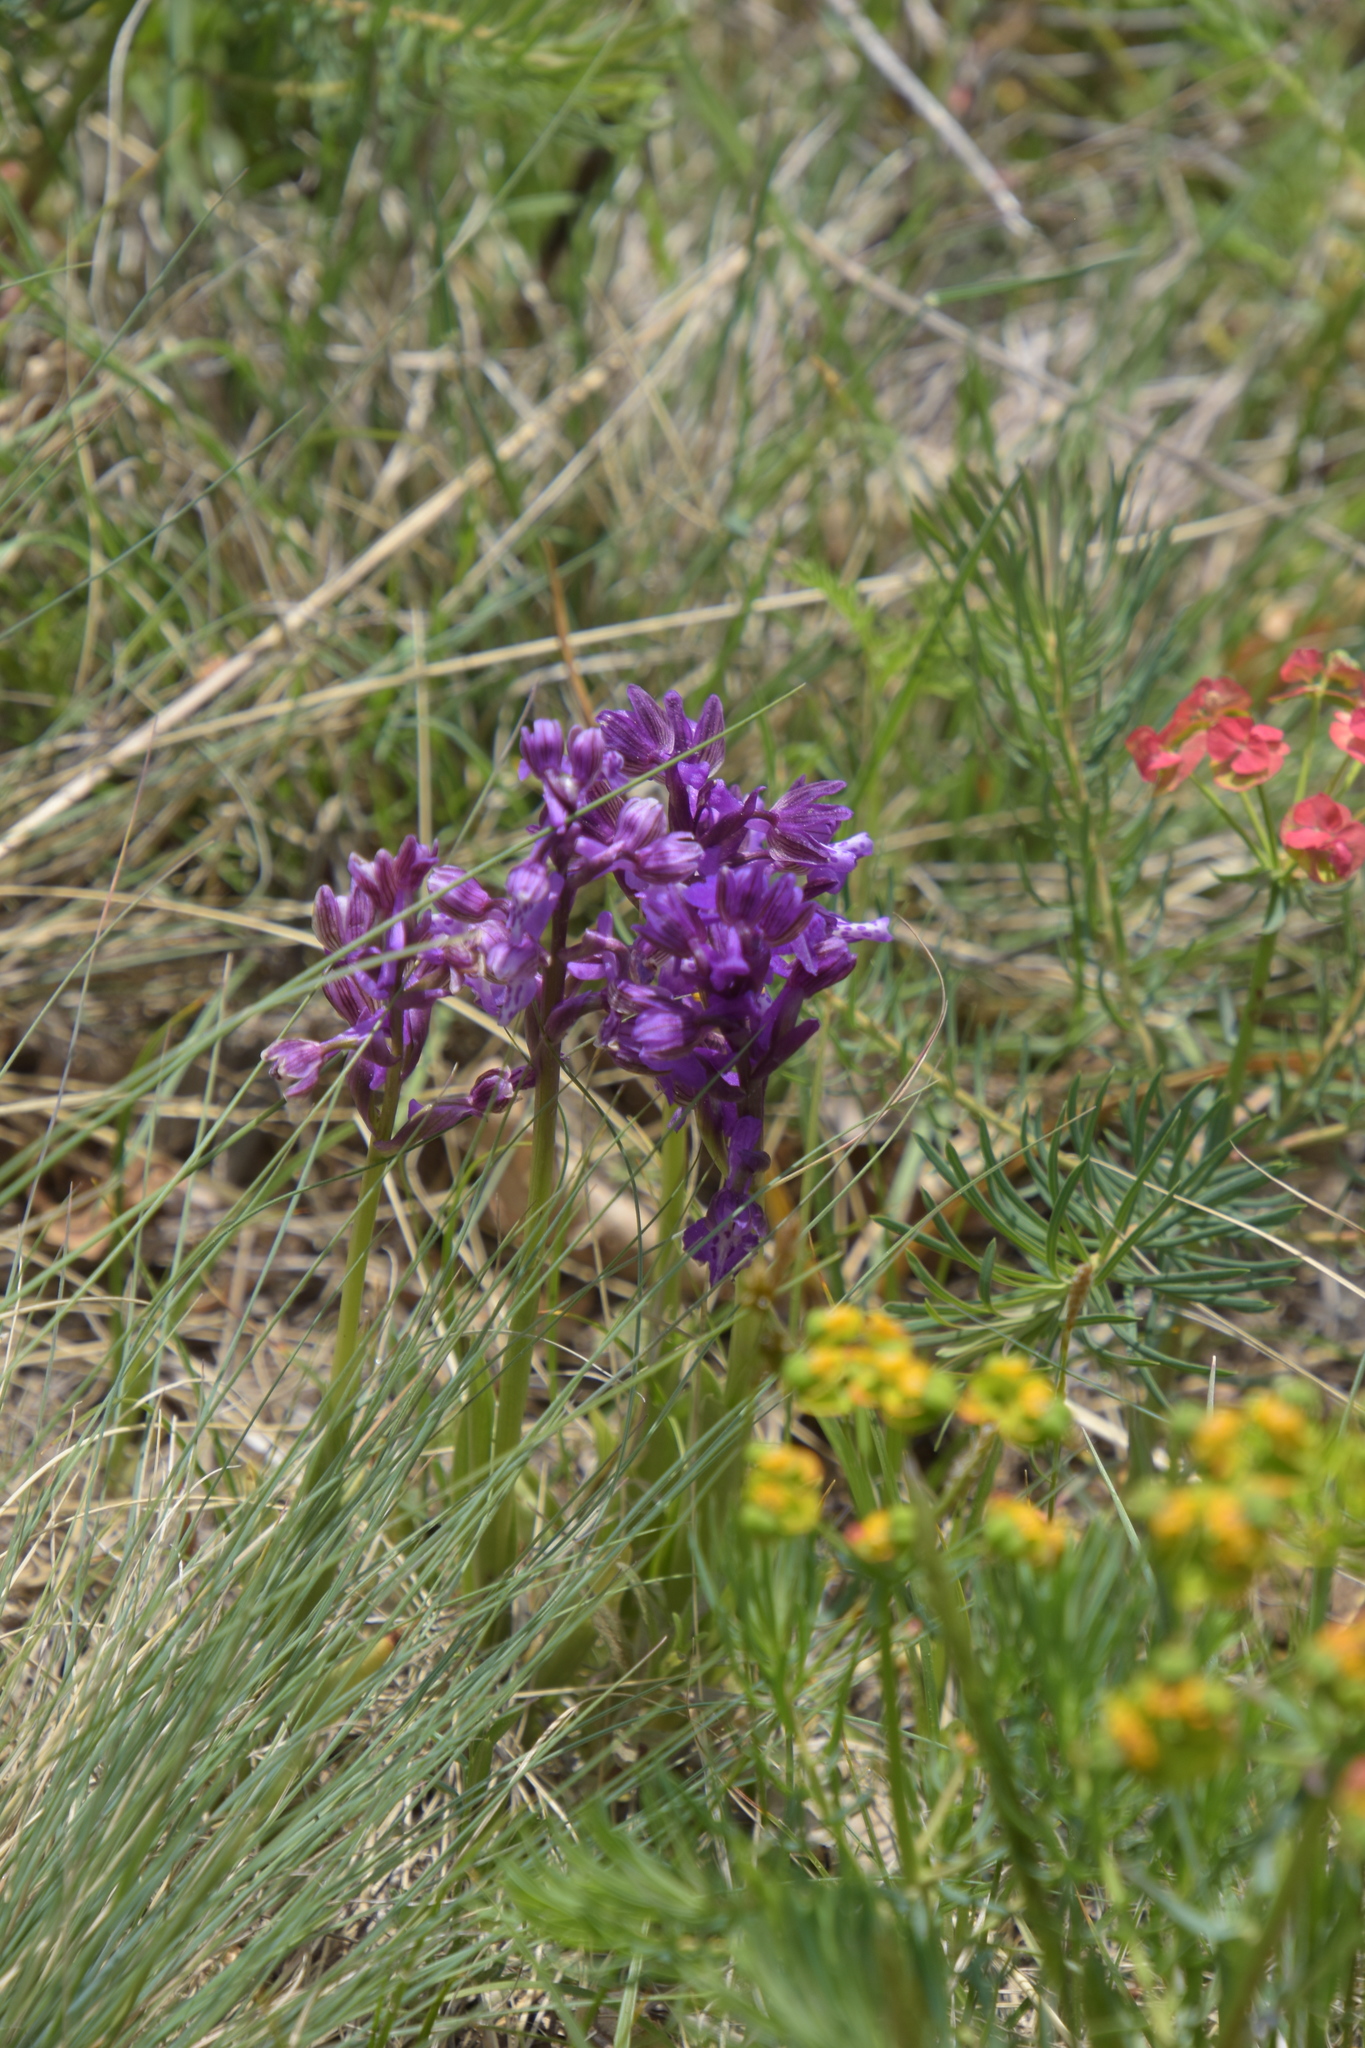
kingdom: Plantae
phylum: Tracheophyta
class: Liliopsida
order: Asparagales
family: Orchidaceae
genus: Anacamptis
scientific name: Anacamptis morio
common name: Green-winged orchid
